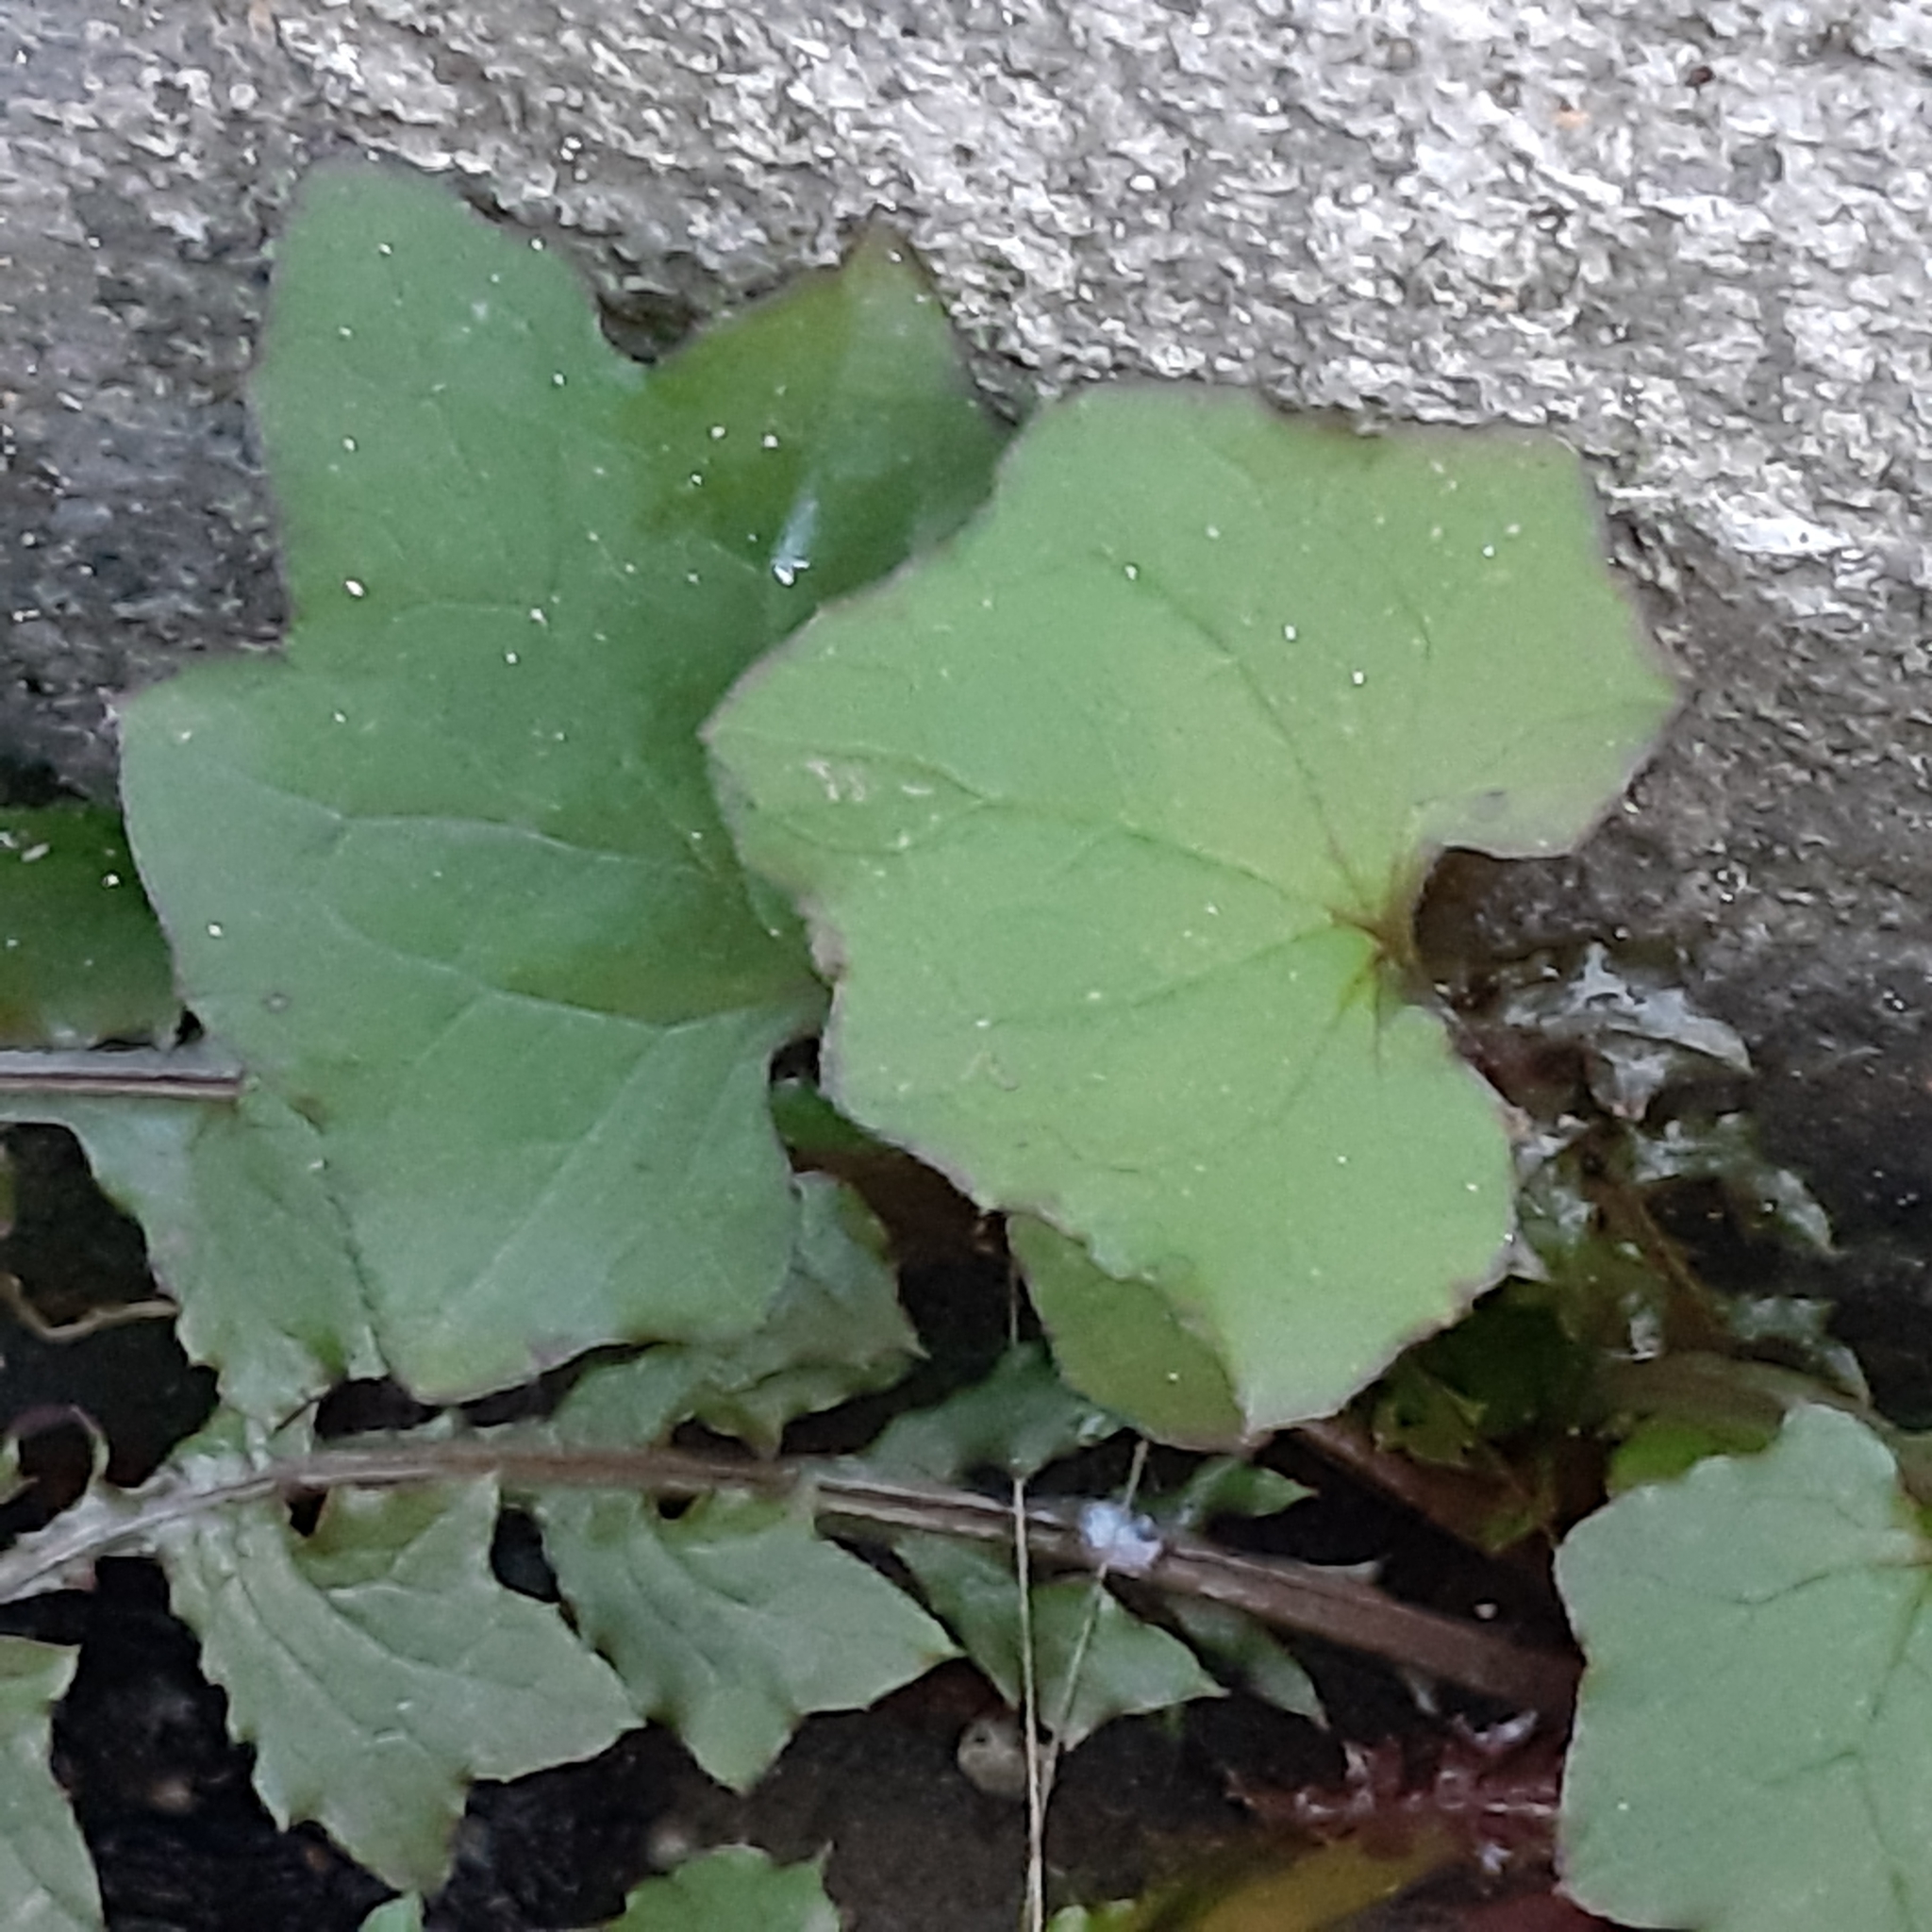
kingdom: Plantae
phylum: Tracheophyta
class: Magnoliopsida
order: Asterales
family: Asteraceae
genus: Mycelis
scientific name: Mycelis muralis
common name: Wall lettuce
